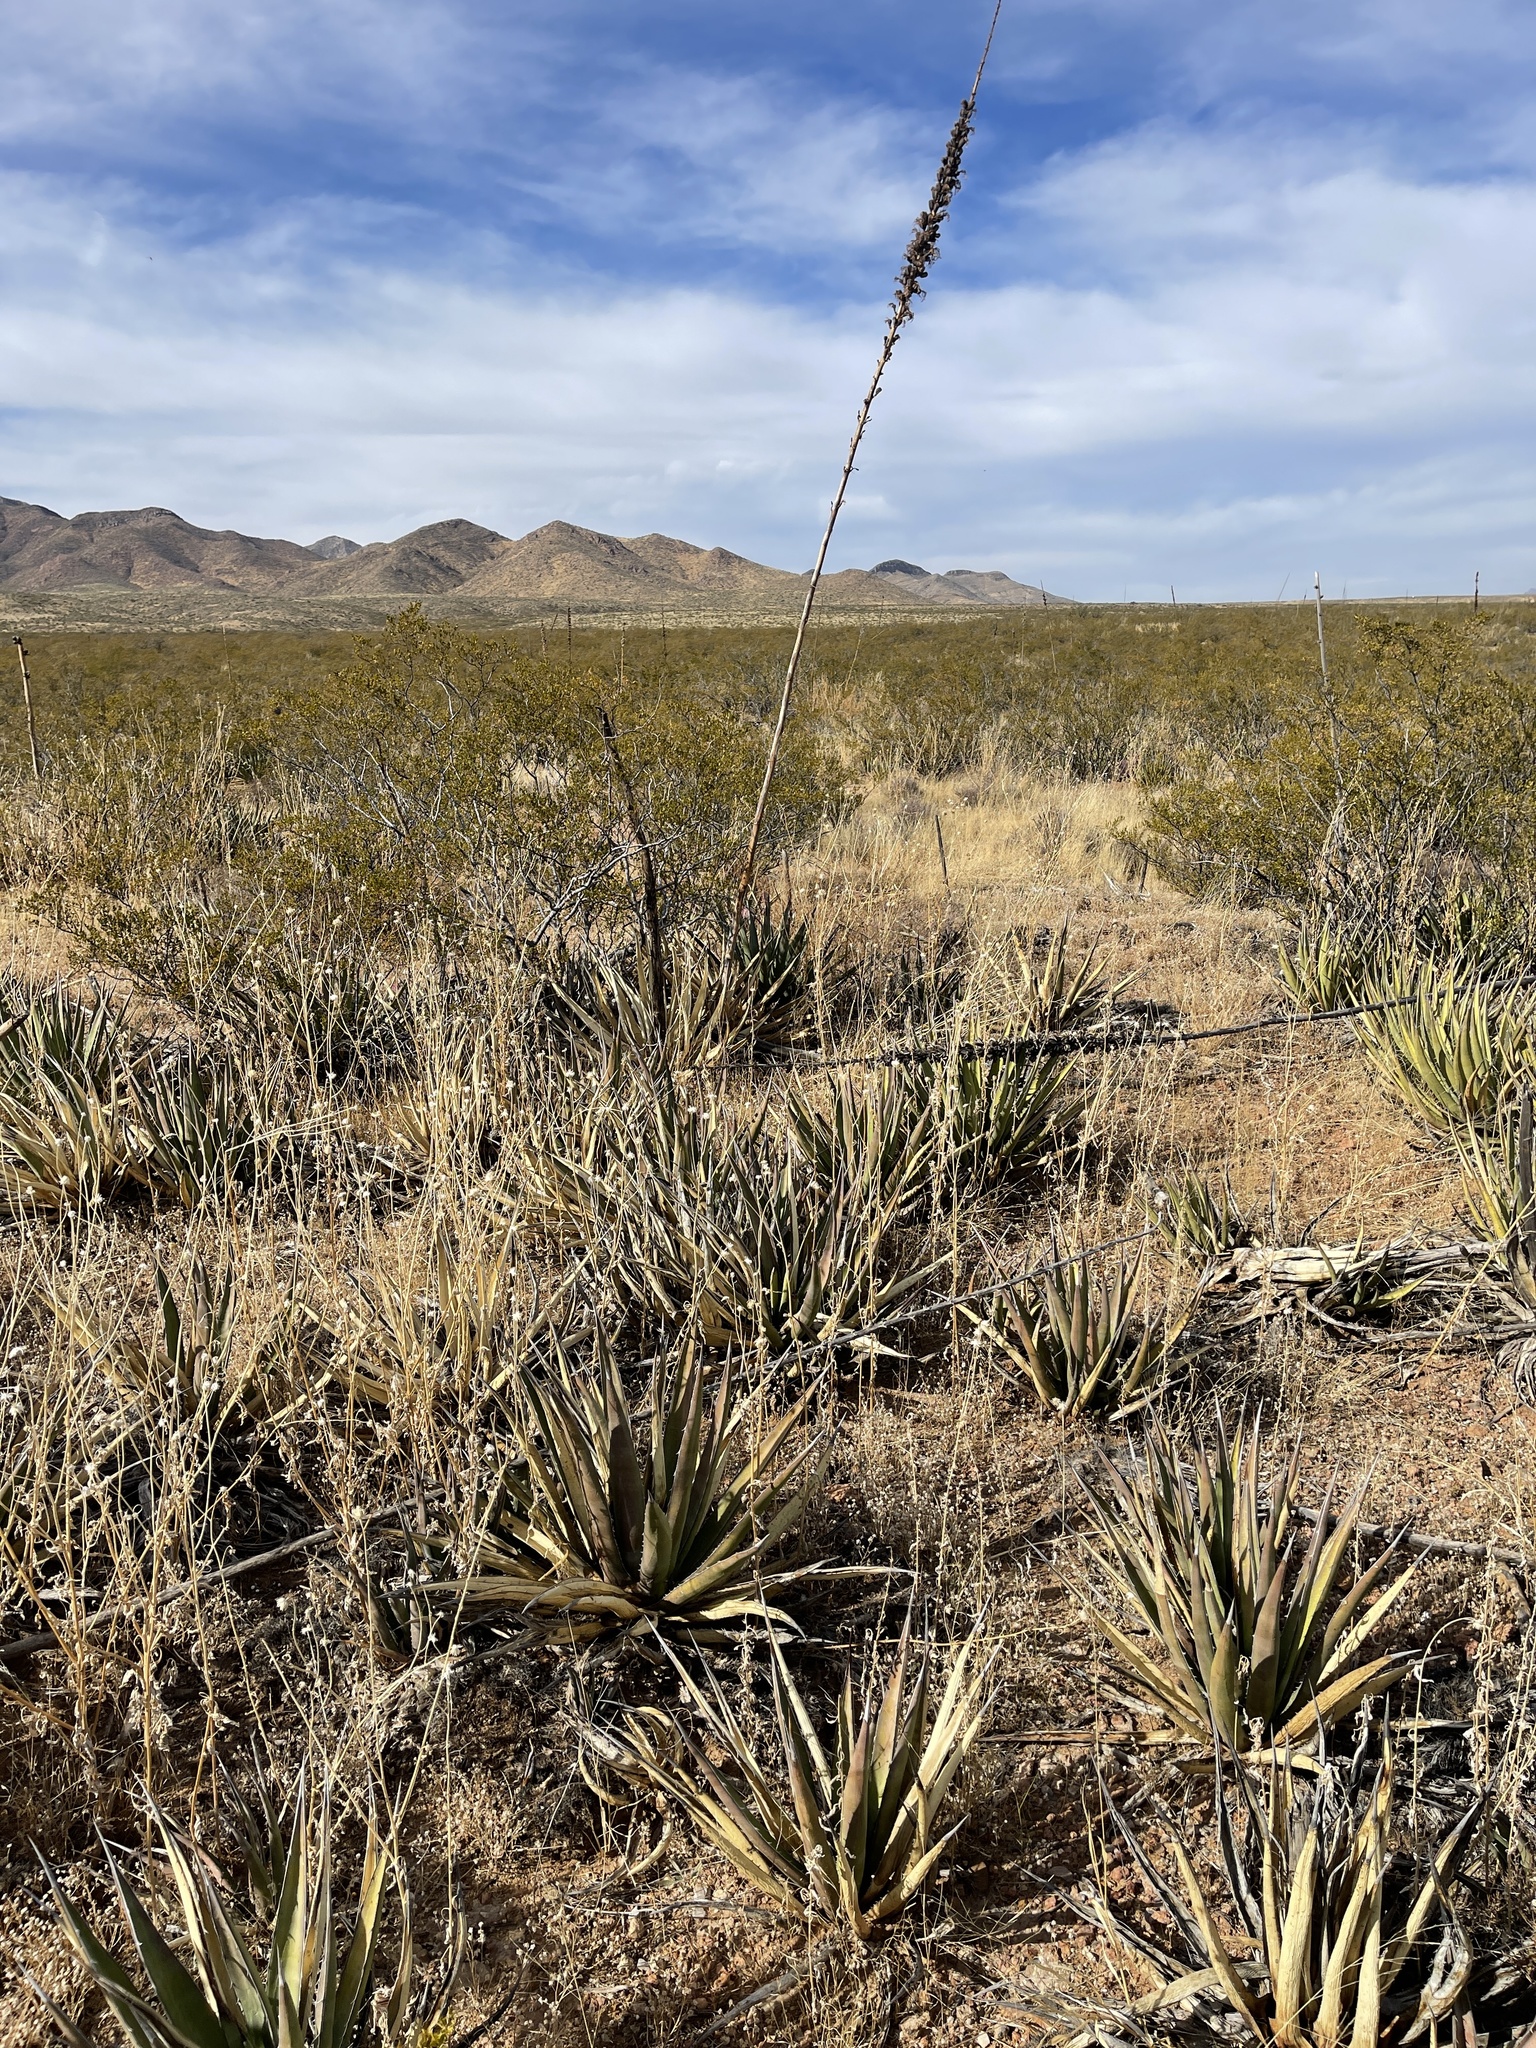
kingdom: Plantae
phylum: Tracheophyta
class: Liliopsida
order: Asparagales
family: Asparagaceae
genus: Agave
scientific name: Agave lechuguilla
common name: Lecheguilla agave
